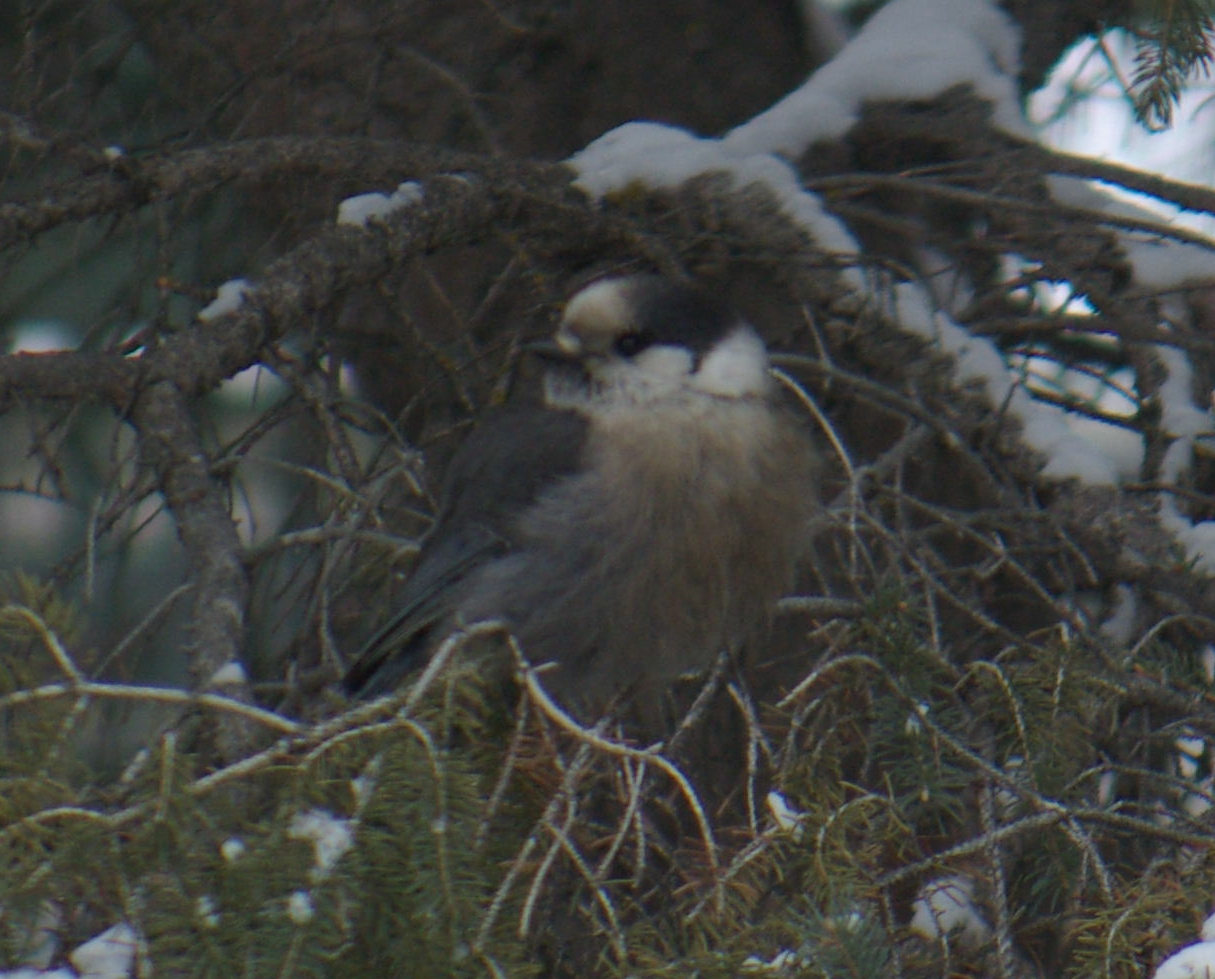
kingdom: Animalia
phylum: Chordata
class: Aves
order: Passeriformes
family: Corvidae
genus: Perisoreus
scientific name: Perisoreus canadensis
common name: Gray jay
